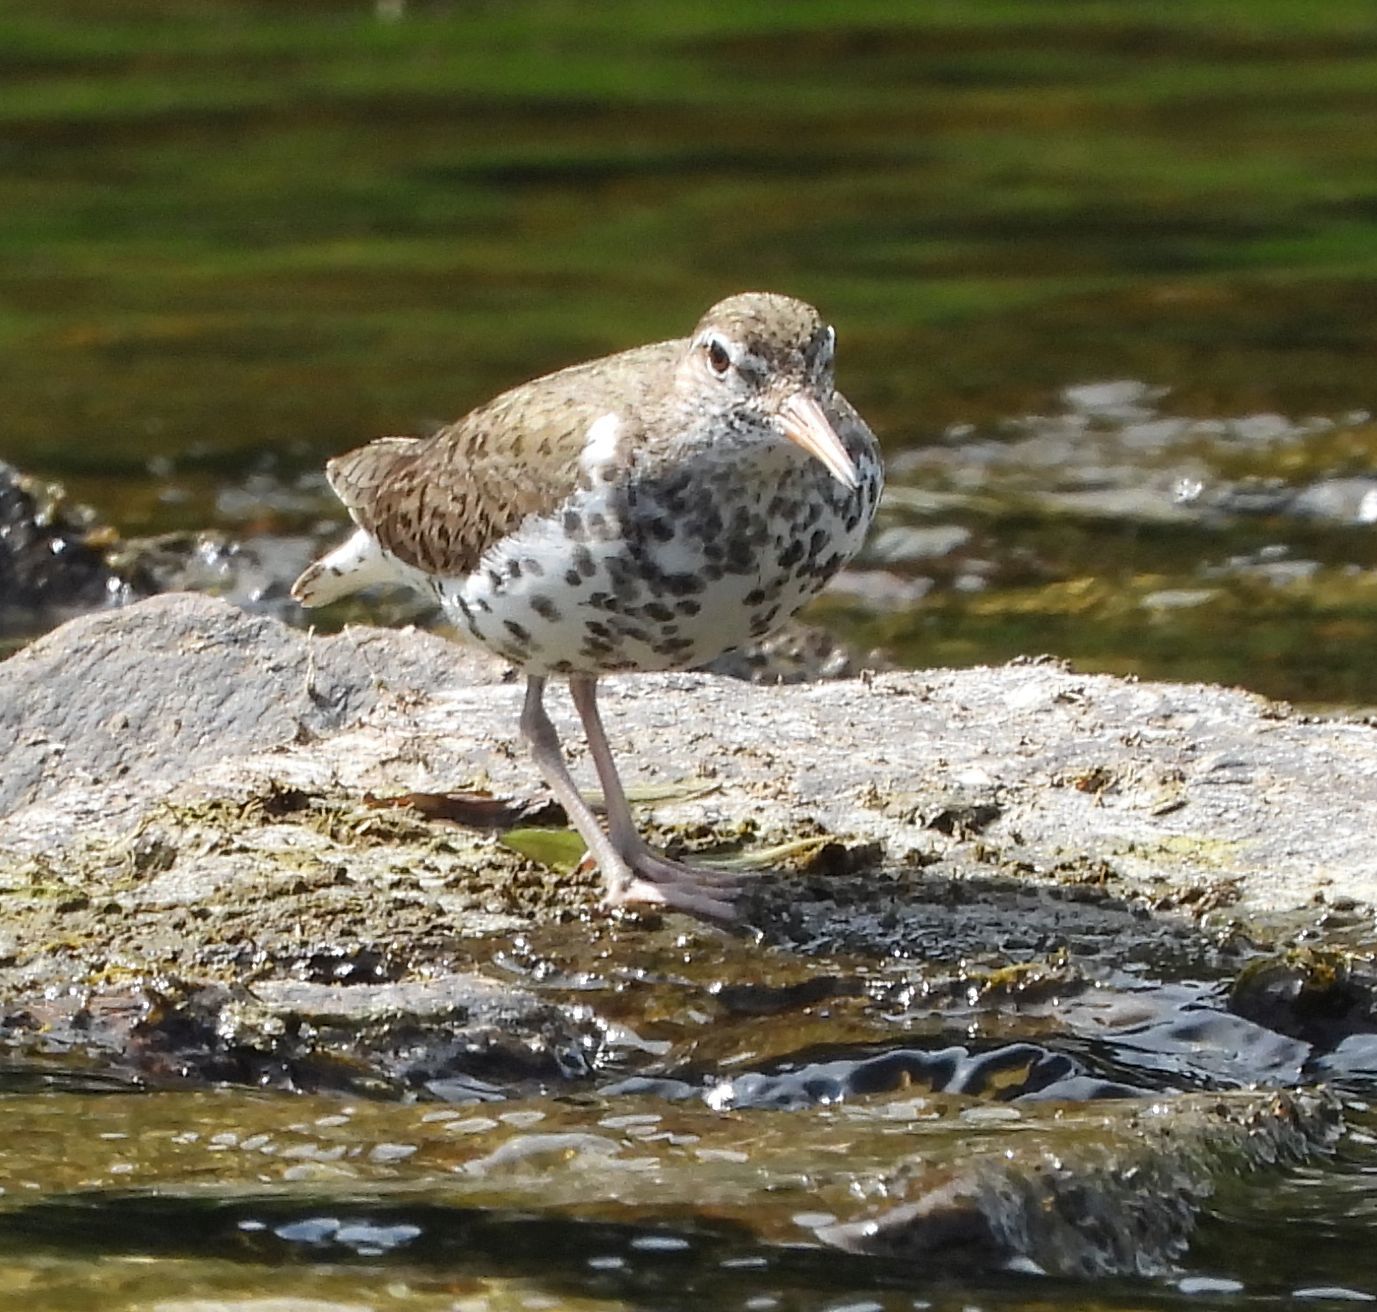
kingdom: Animalia
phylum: Chordata
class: Aves
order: Charadriiformes
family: Scolopacidae
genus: Actitis
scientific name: Actitis macularius
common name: Spotted sandpiper
